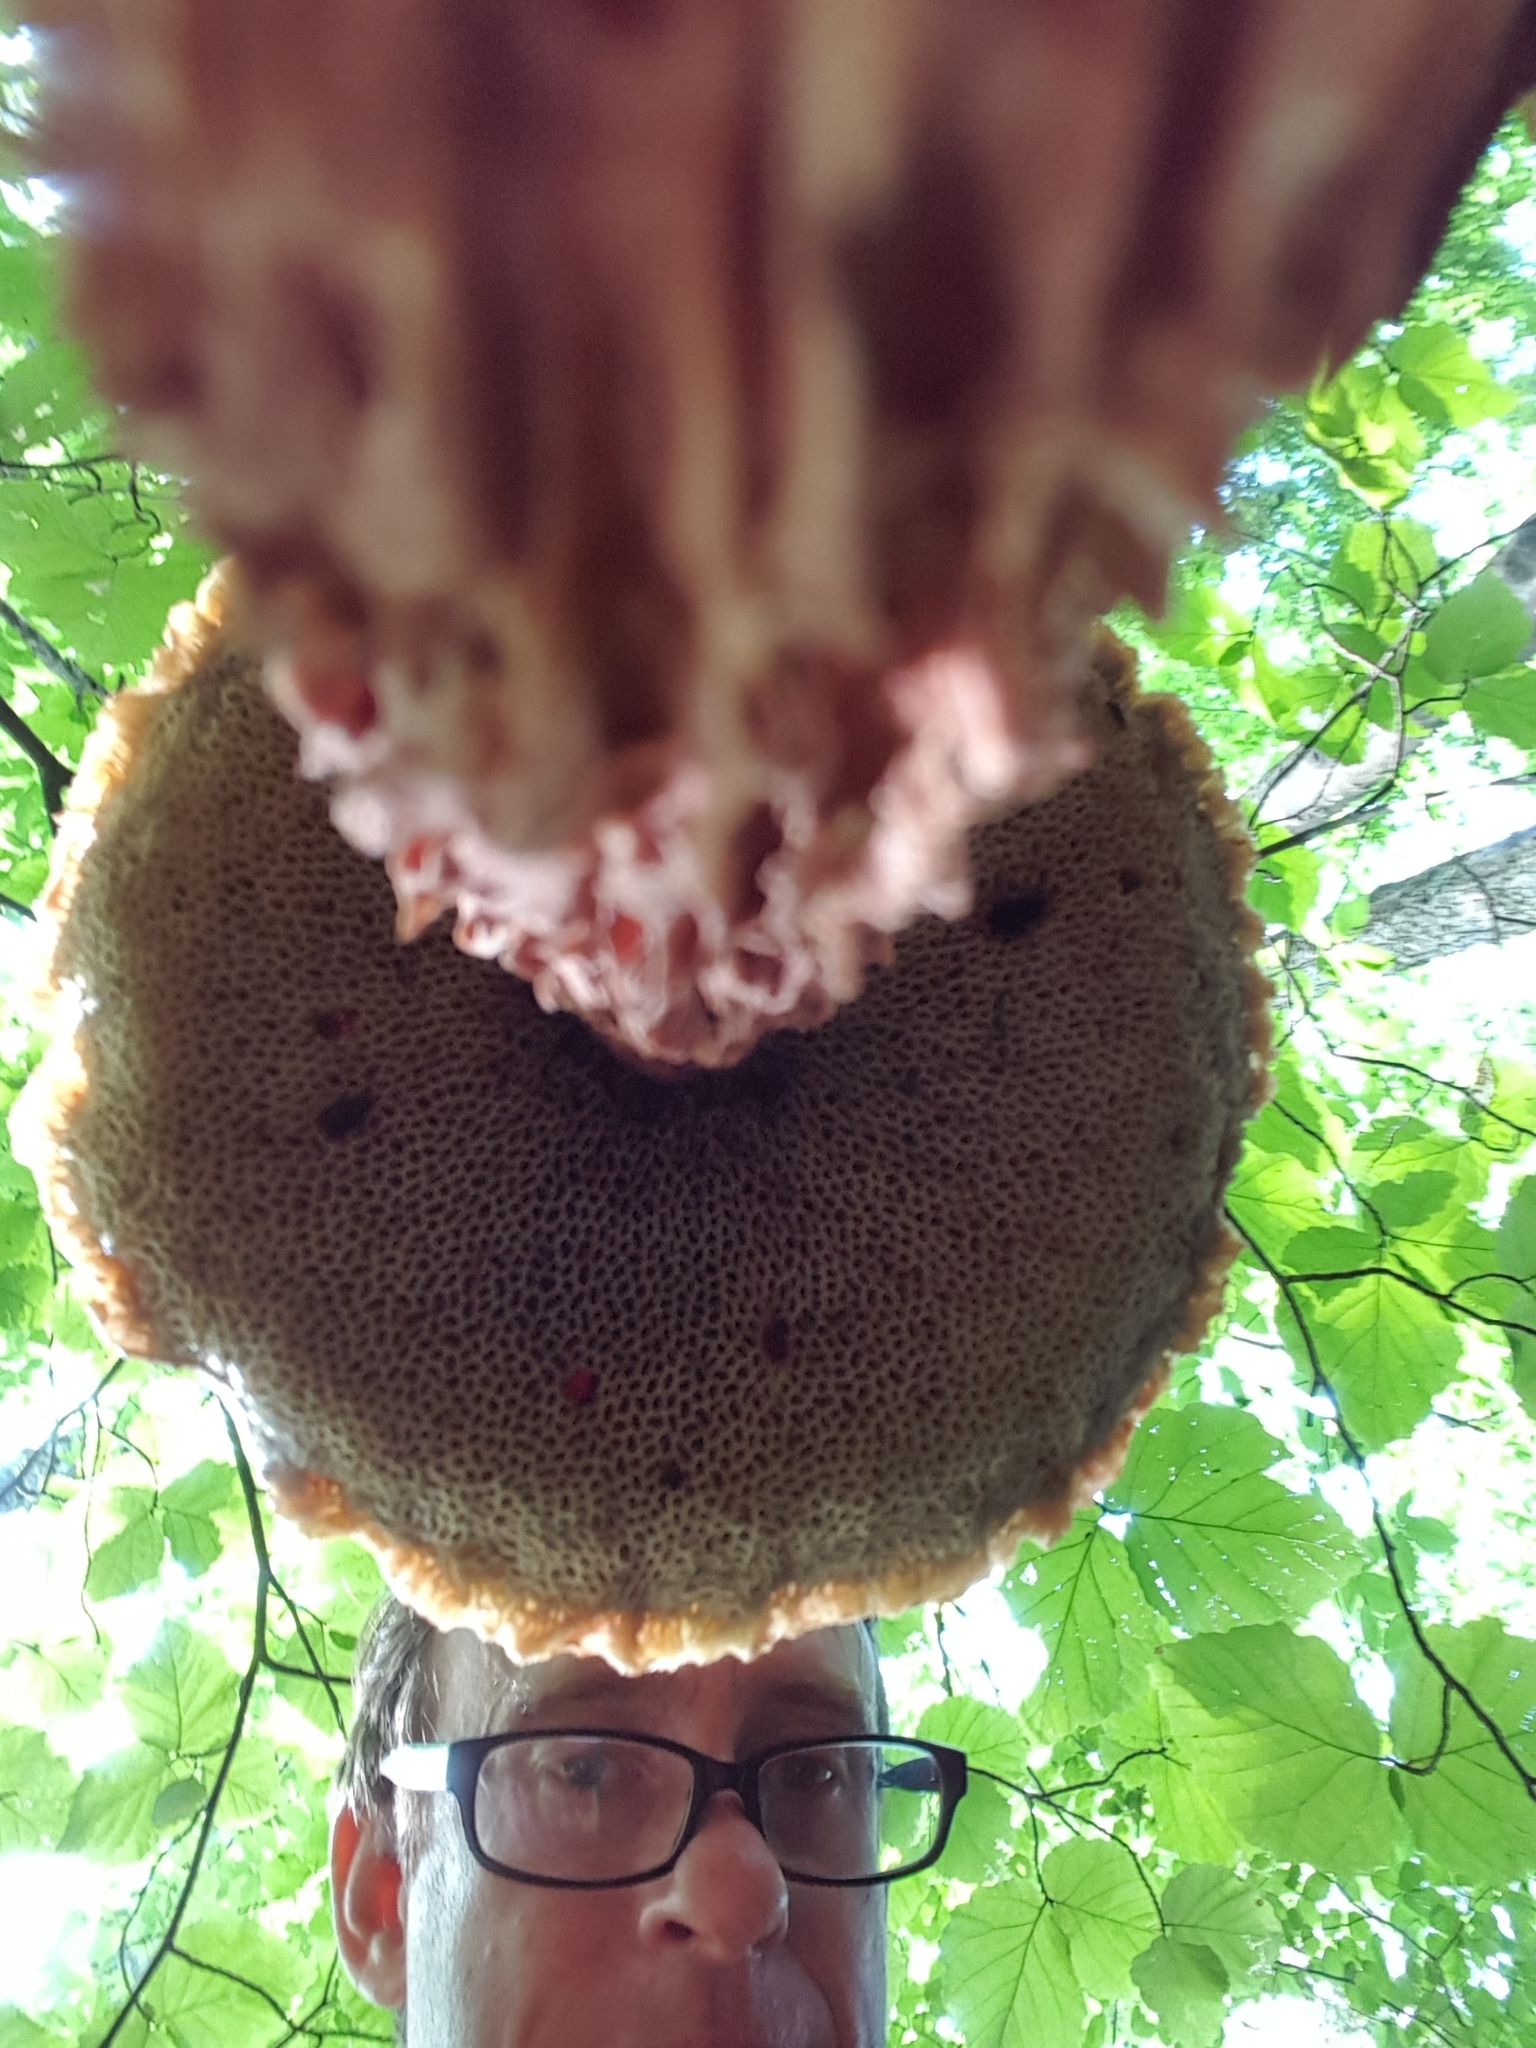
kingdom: Fungi
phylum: Basidiomycota
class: Agaricomycetes
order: Boletales
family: Boletaceae
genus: Aureoboletus
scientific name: Aureoboletus russellii
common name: Russell's bolete
